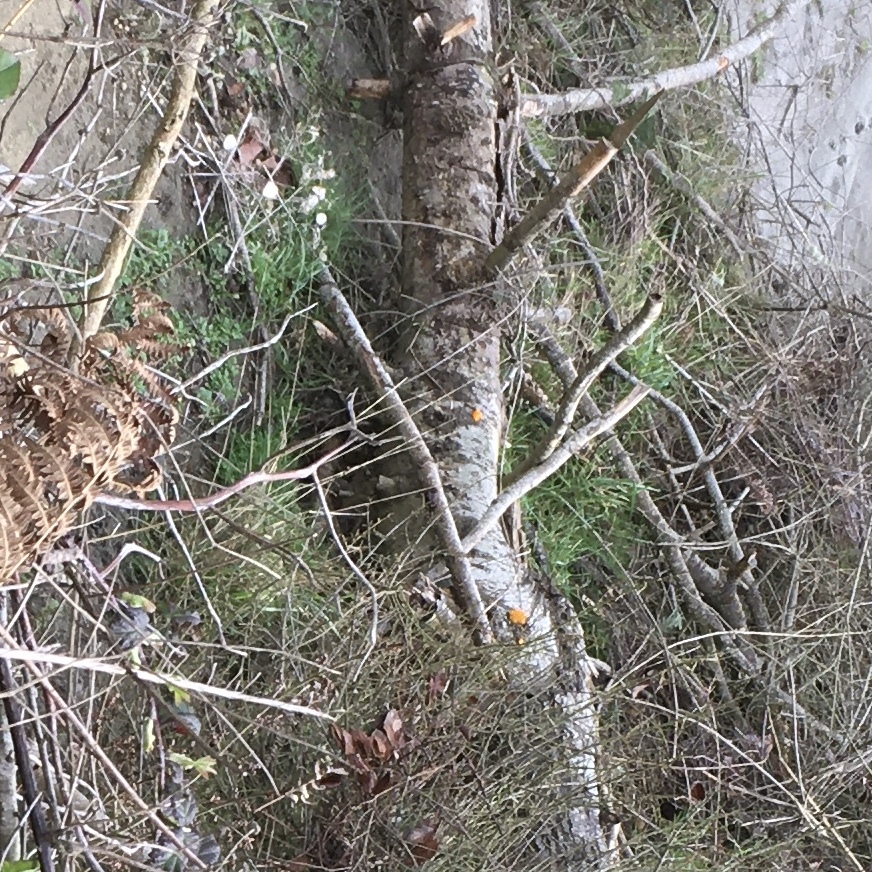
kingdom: Fungi
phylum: Basidiomycota
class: Dacrymycetes
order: Dacrymycetales
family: Dacrymycetaceae
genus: Dacrymyces
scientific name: Dacrymyces chrysospermus
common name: Orange jelly spot
